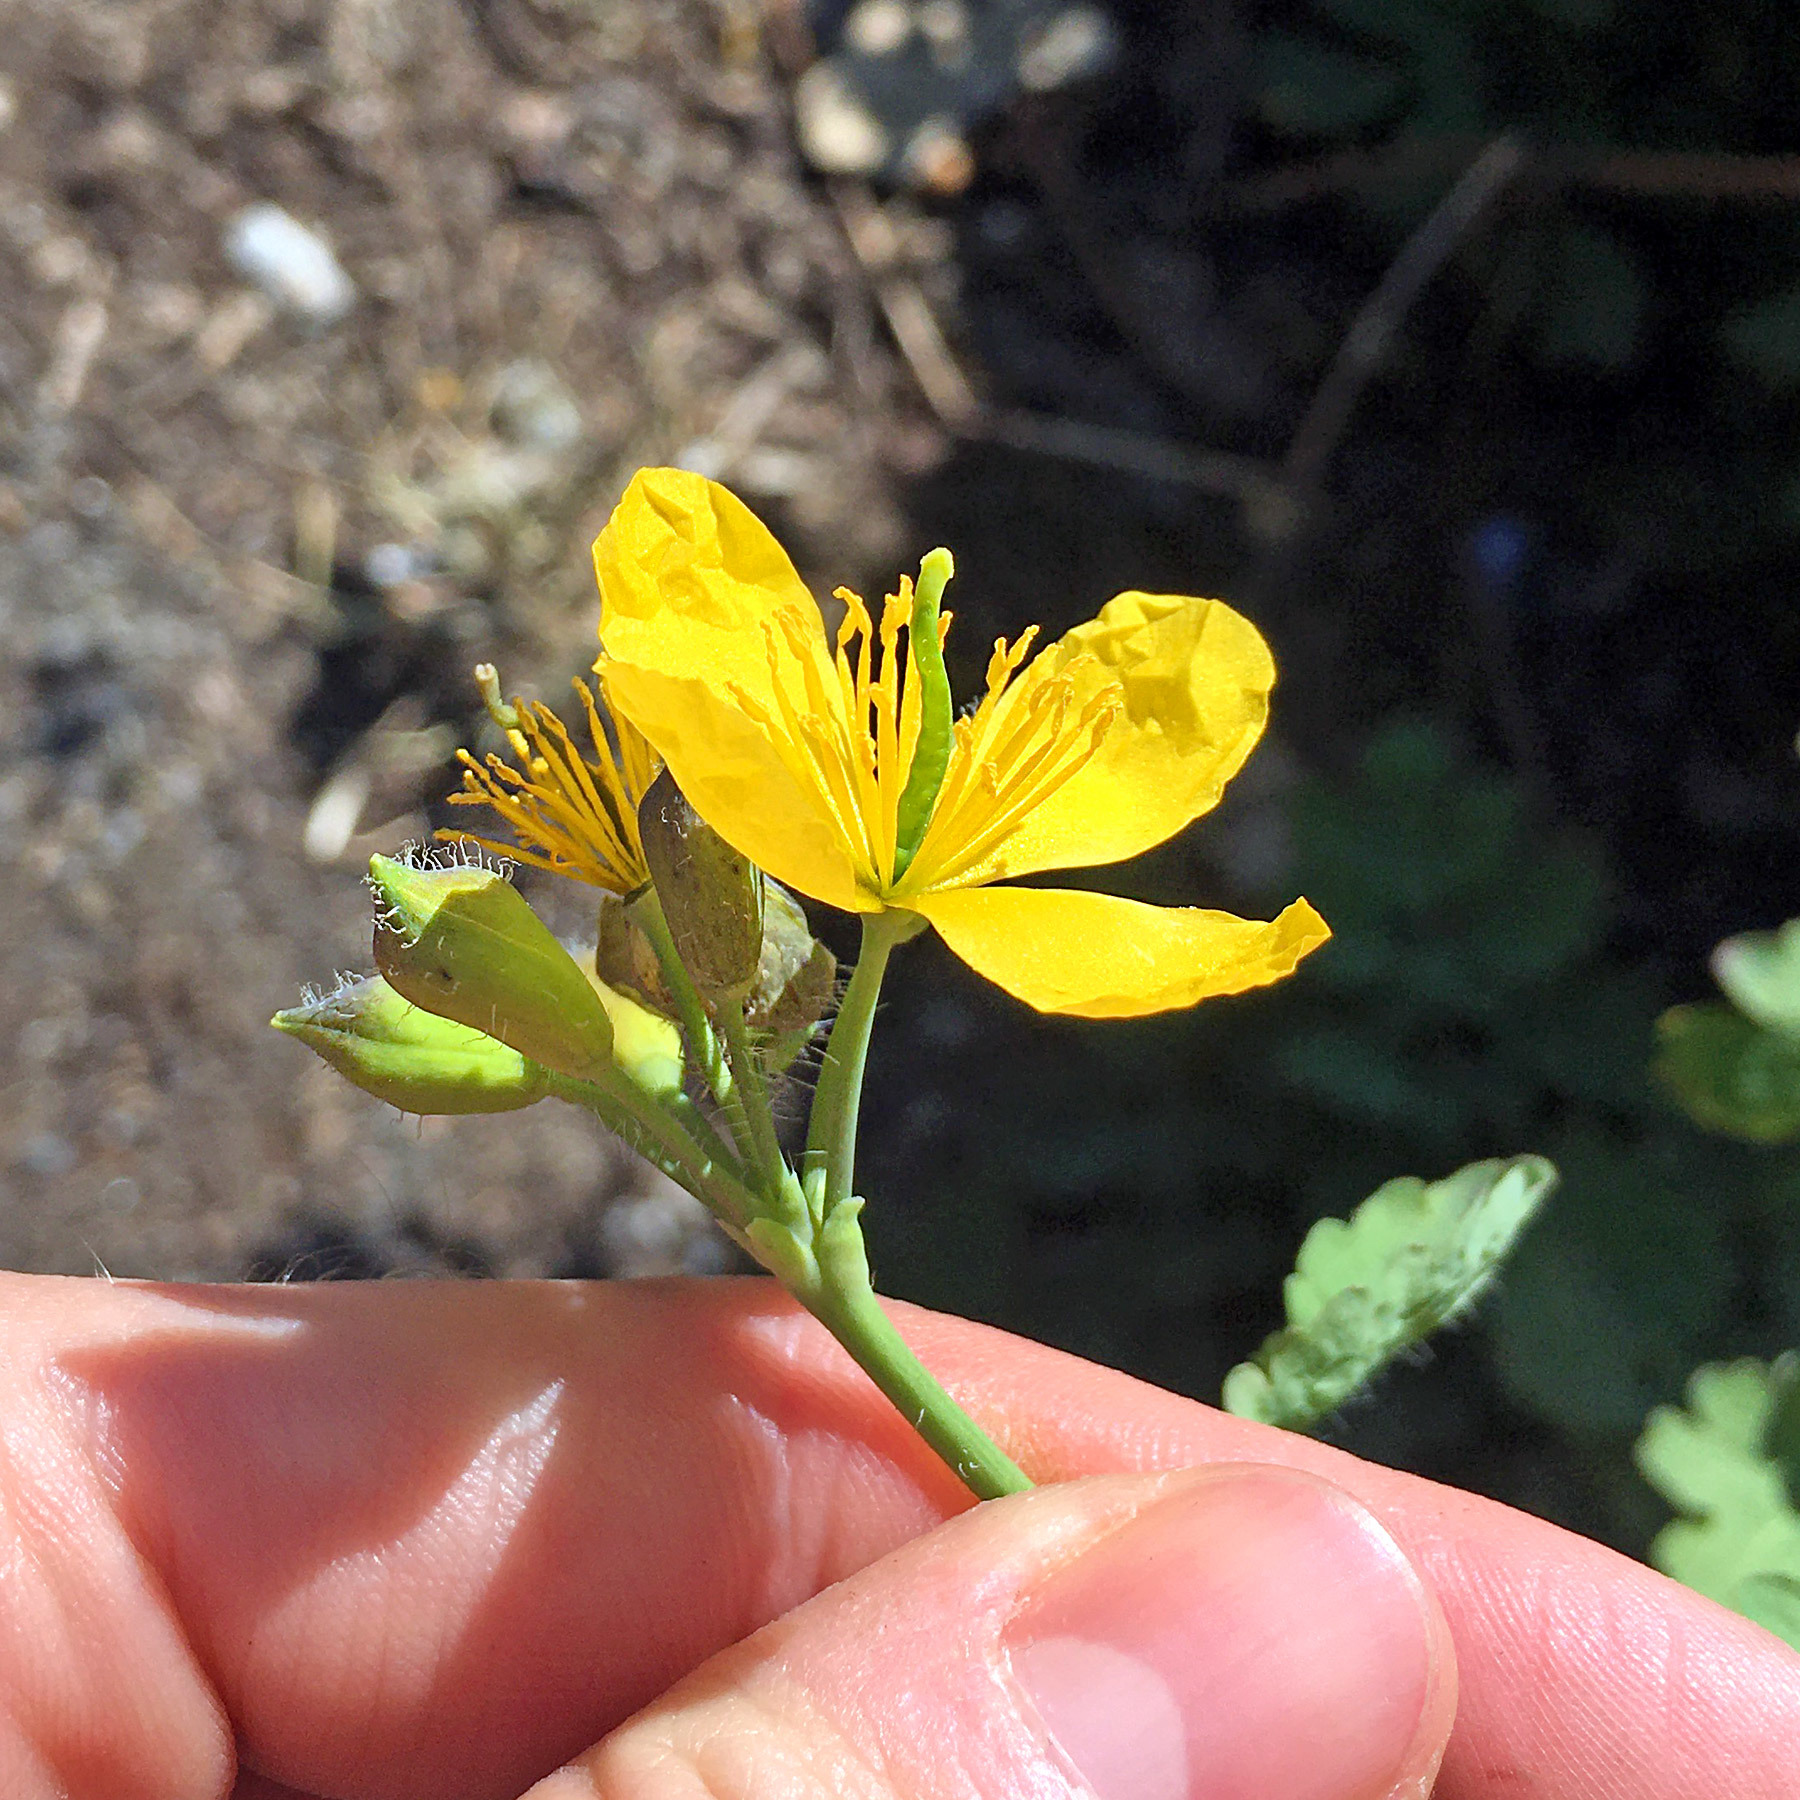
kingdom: Plantae
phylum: Tracheophyta
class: Magnoliopsida
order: Ranunculales
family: Papaveraceae
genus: Chelidonium
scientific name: Chelidonium majus
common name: Greater celandine
